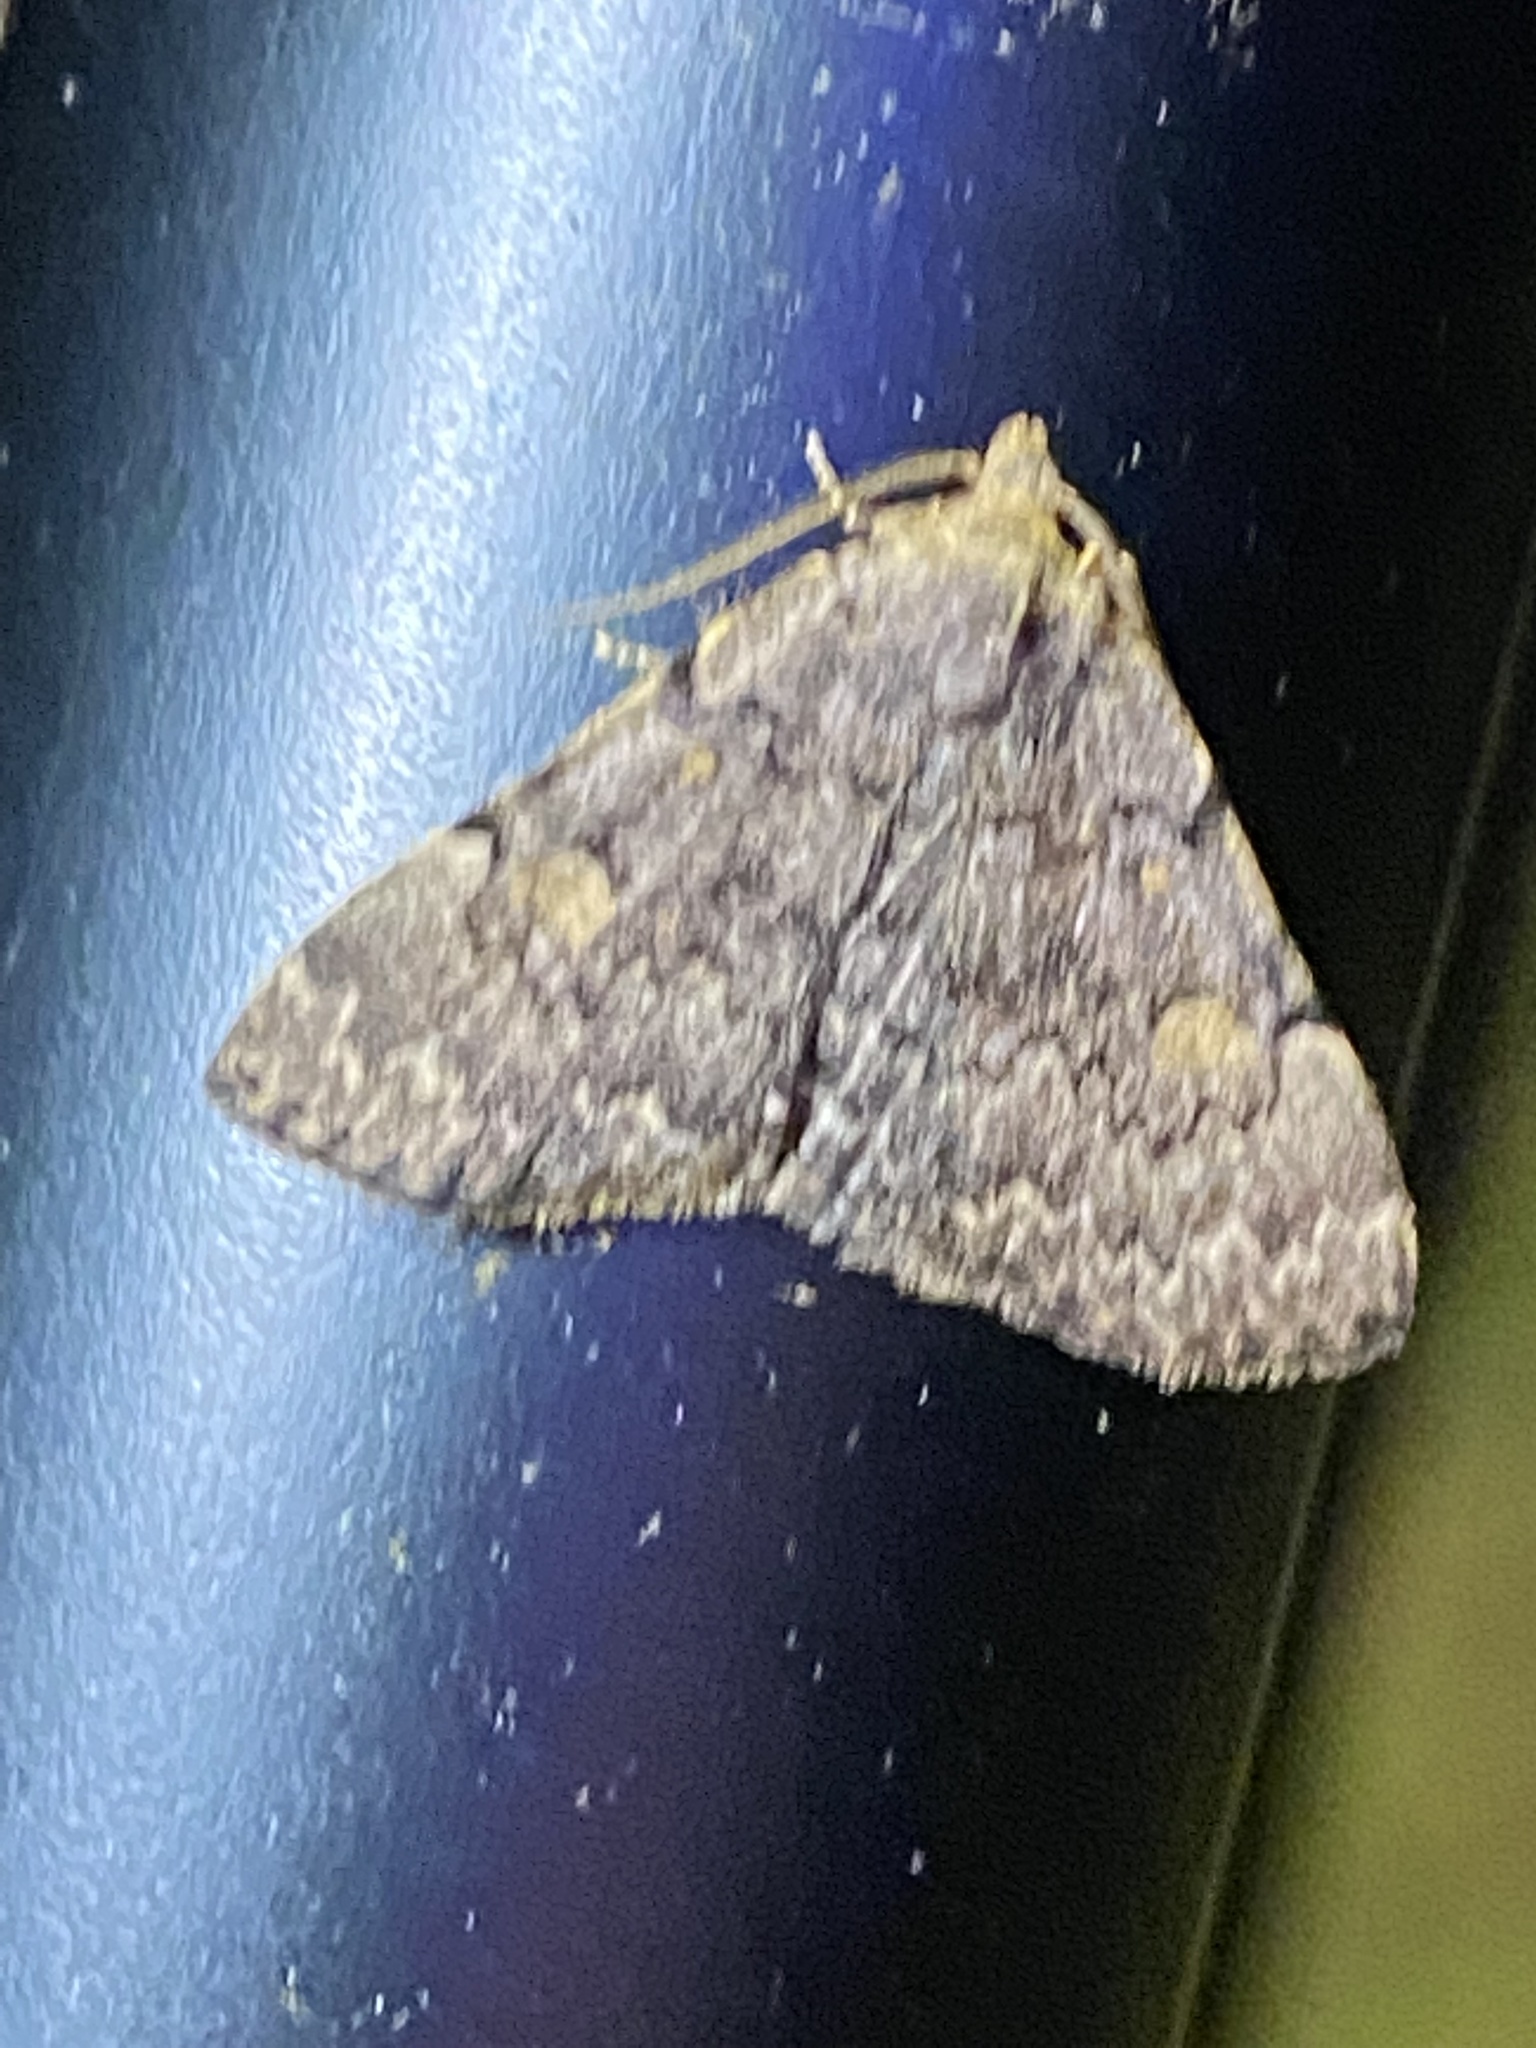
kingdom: Animalia
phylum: Arthropoda
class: Insecta
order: Lepidoptera
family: Erebidae
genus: Idia
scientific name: Idia aemula
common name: Common idia moth
